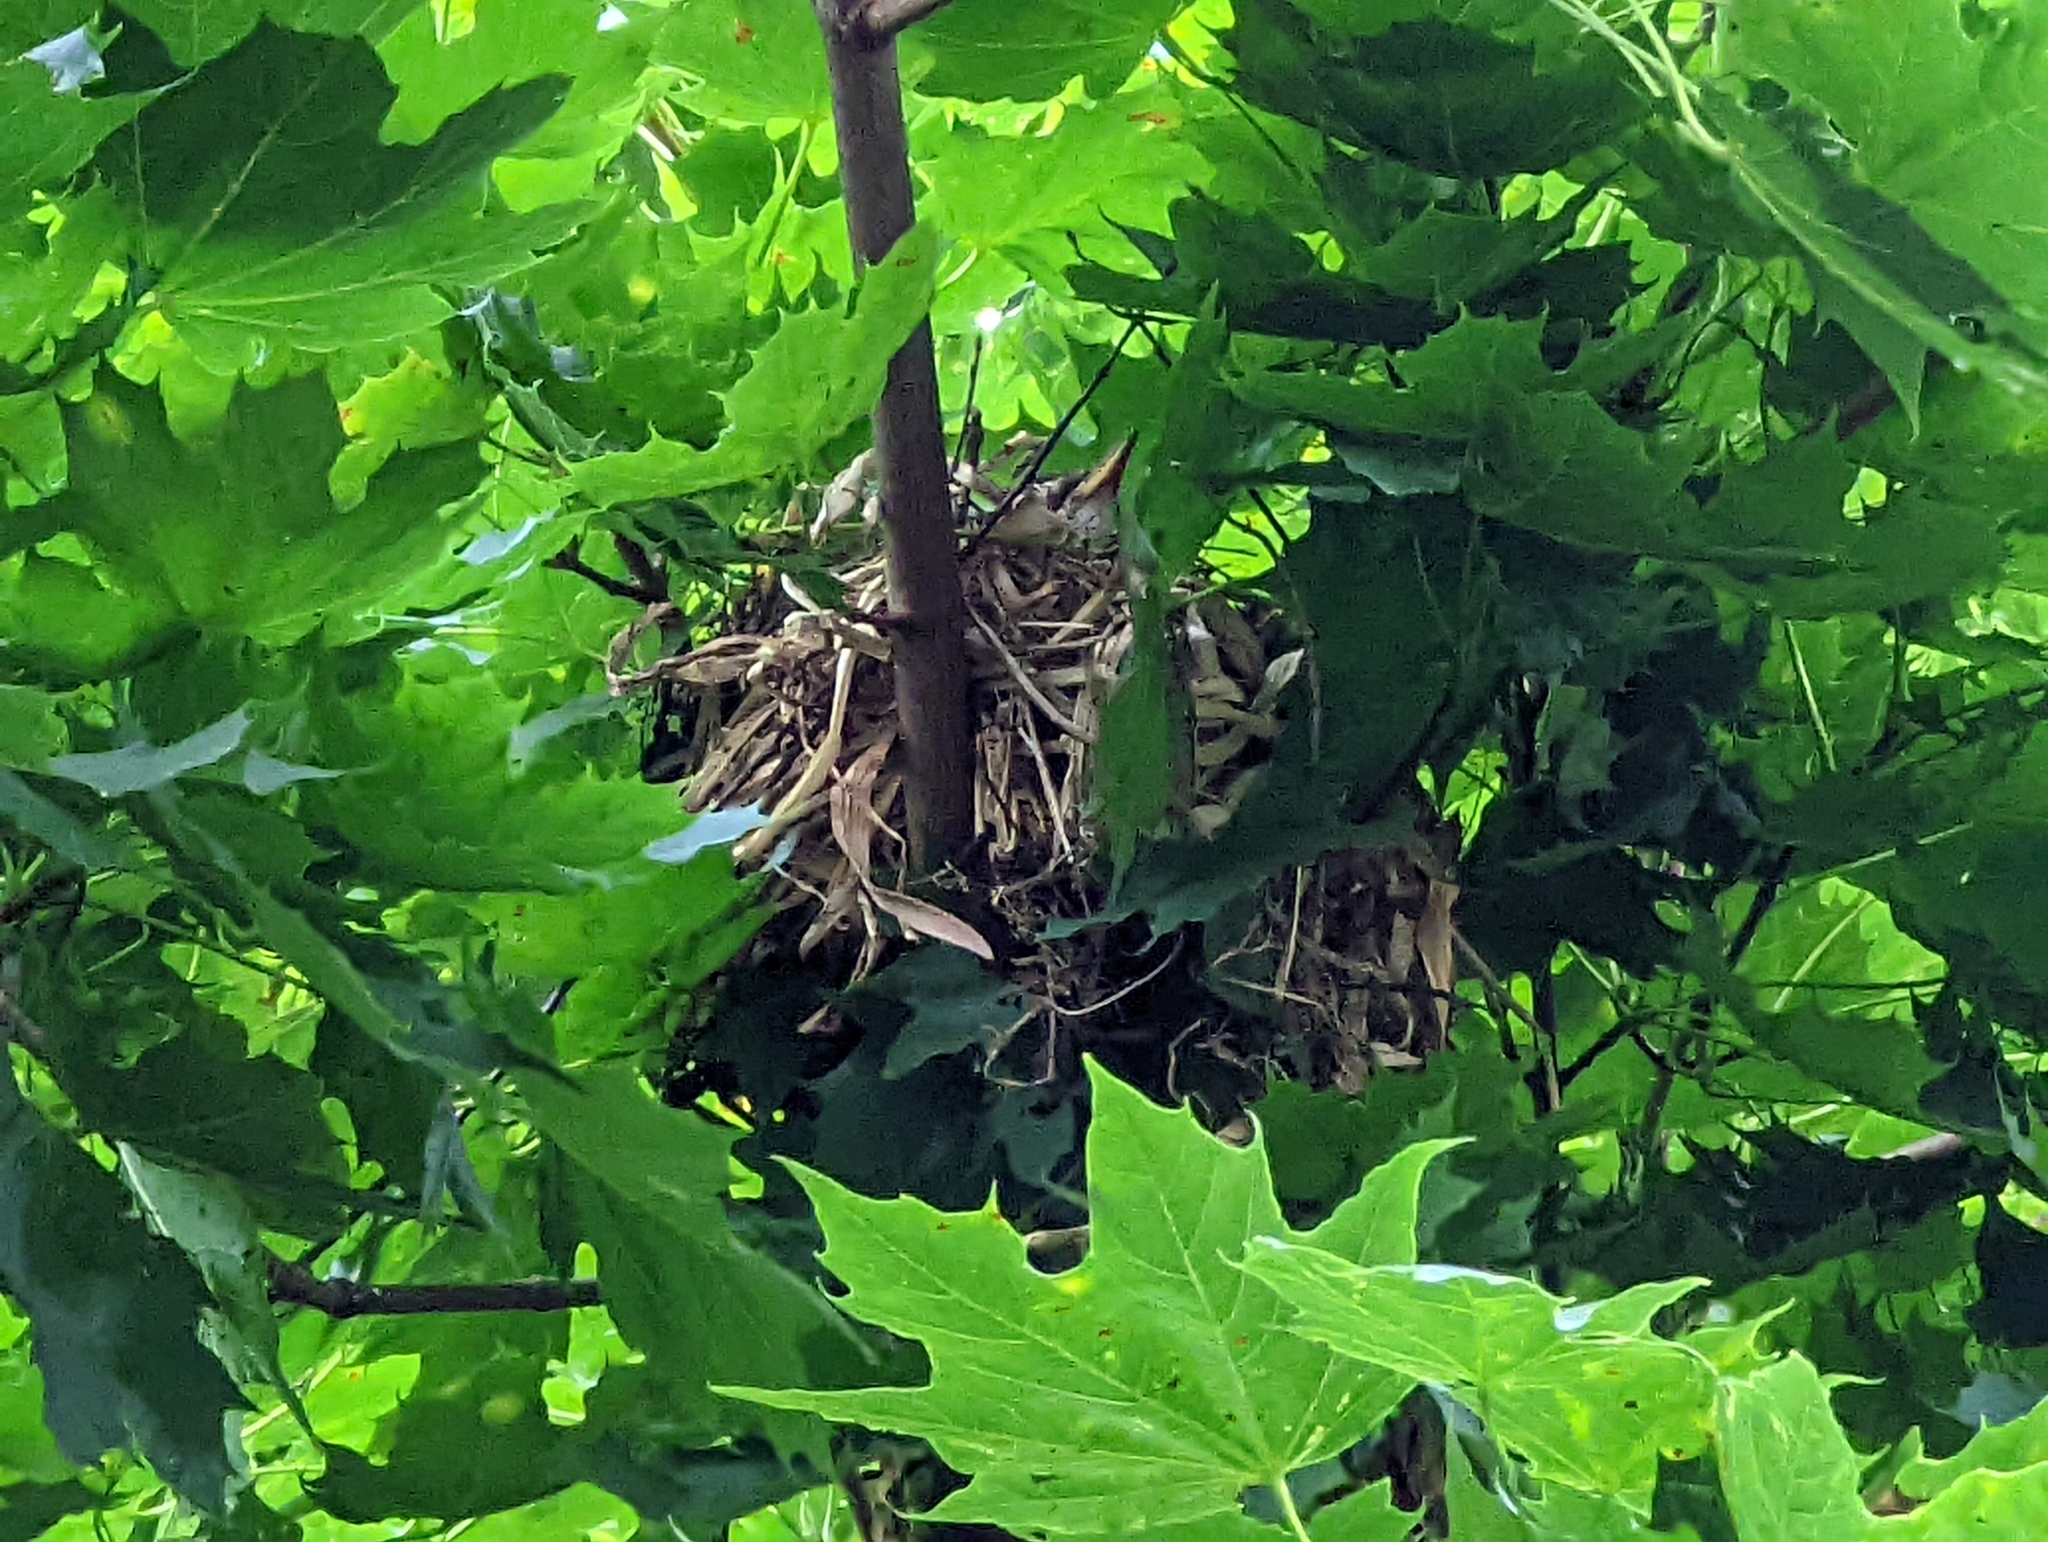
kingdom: Animalia
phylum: Chordata
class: Aves
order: Passeriformes
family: Turdidae
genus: Turdus
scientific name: Turdus migratorius
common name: American robin
